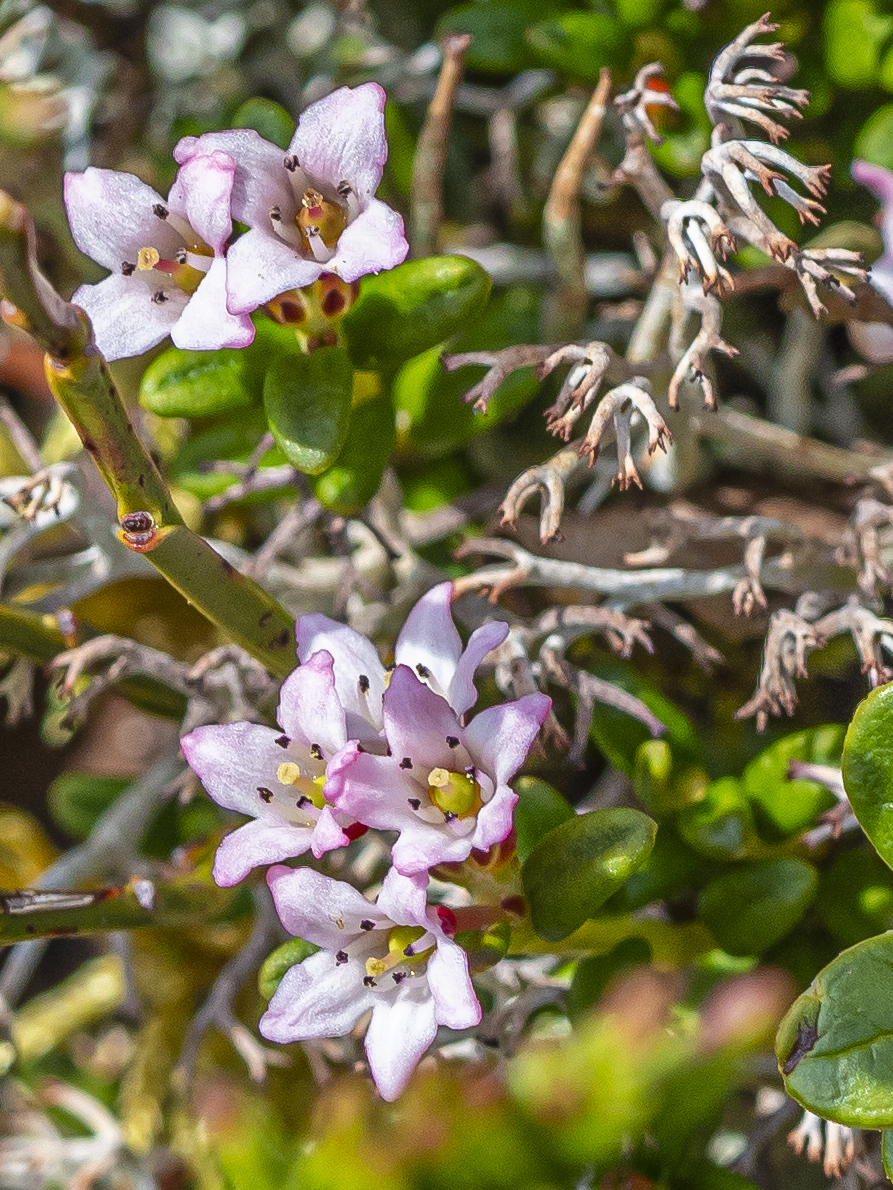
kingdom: Plantae
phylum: Tracheophyta
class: Magnoliopsida
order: Ericales
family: Ericaceae
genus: Kalmia
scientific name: Kalmia procumbens
